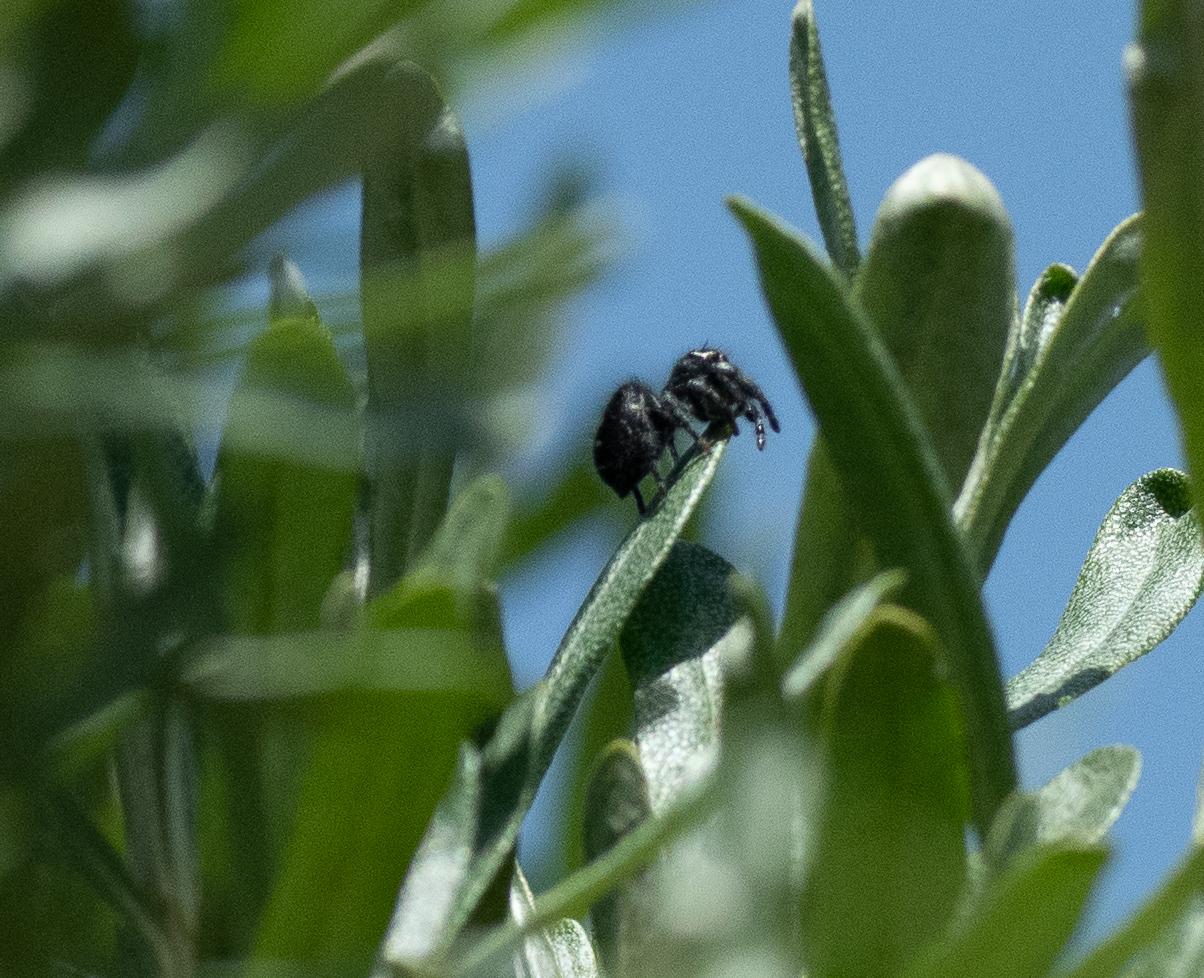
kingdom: Animalia
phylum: Arthropoda
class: Arachnida
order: Araneae
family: Salticidae
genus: Phidippus
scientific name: Phidippus audax
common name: Bold jumper
